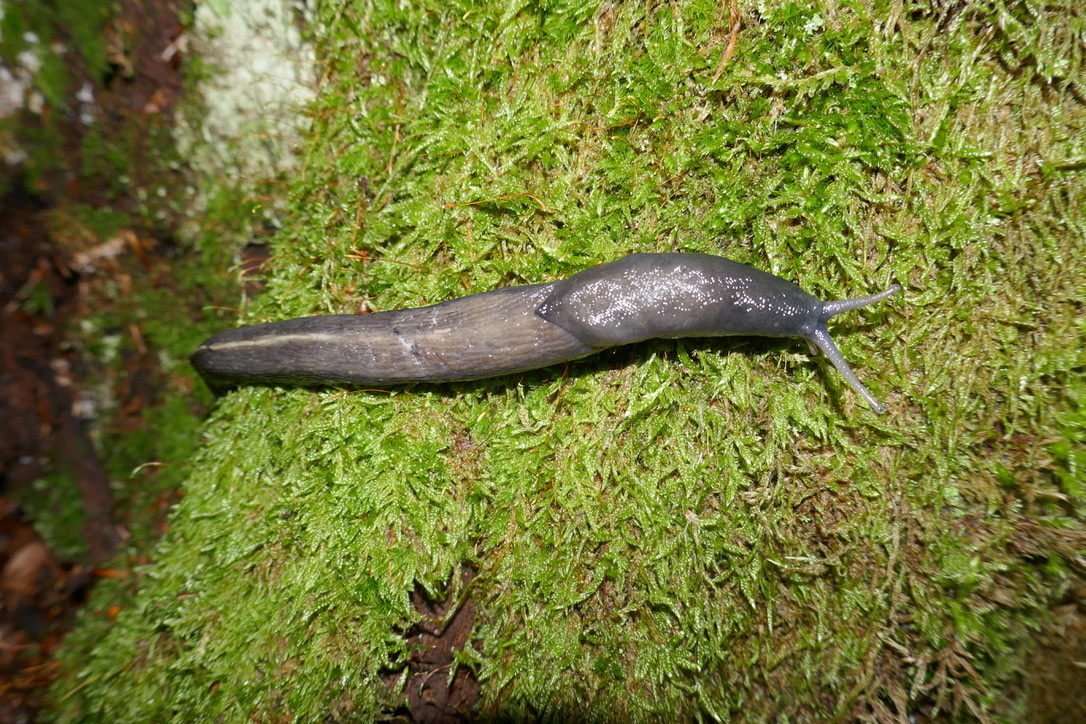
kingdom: Animalia
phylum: Mollusca
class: Gastropoda
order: Stylommatophora
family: Limacidae
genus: Limax
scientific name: Limax cinereoniger
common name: Ash-black slug
